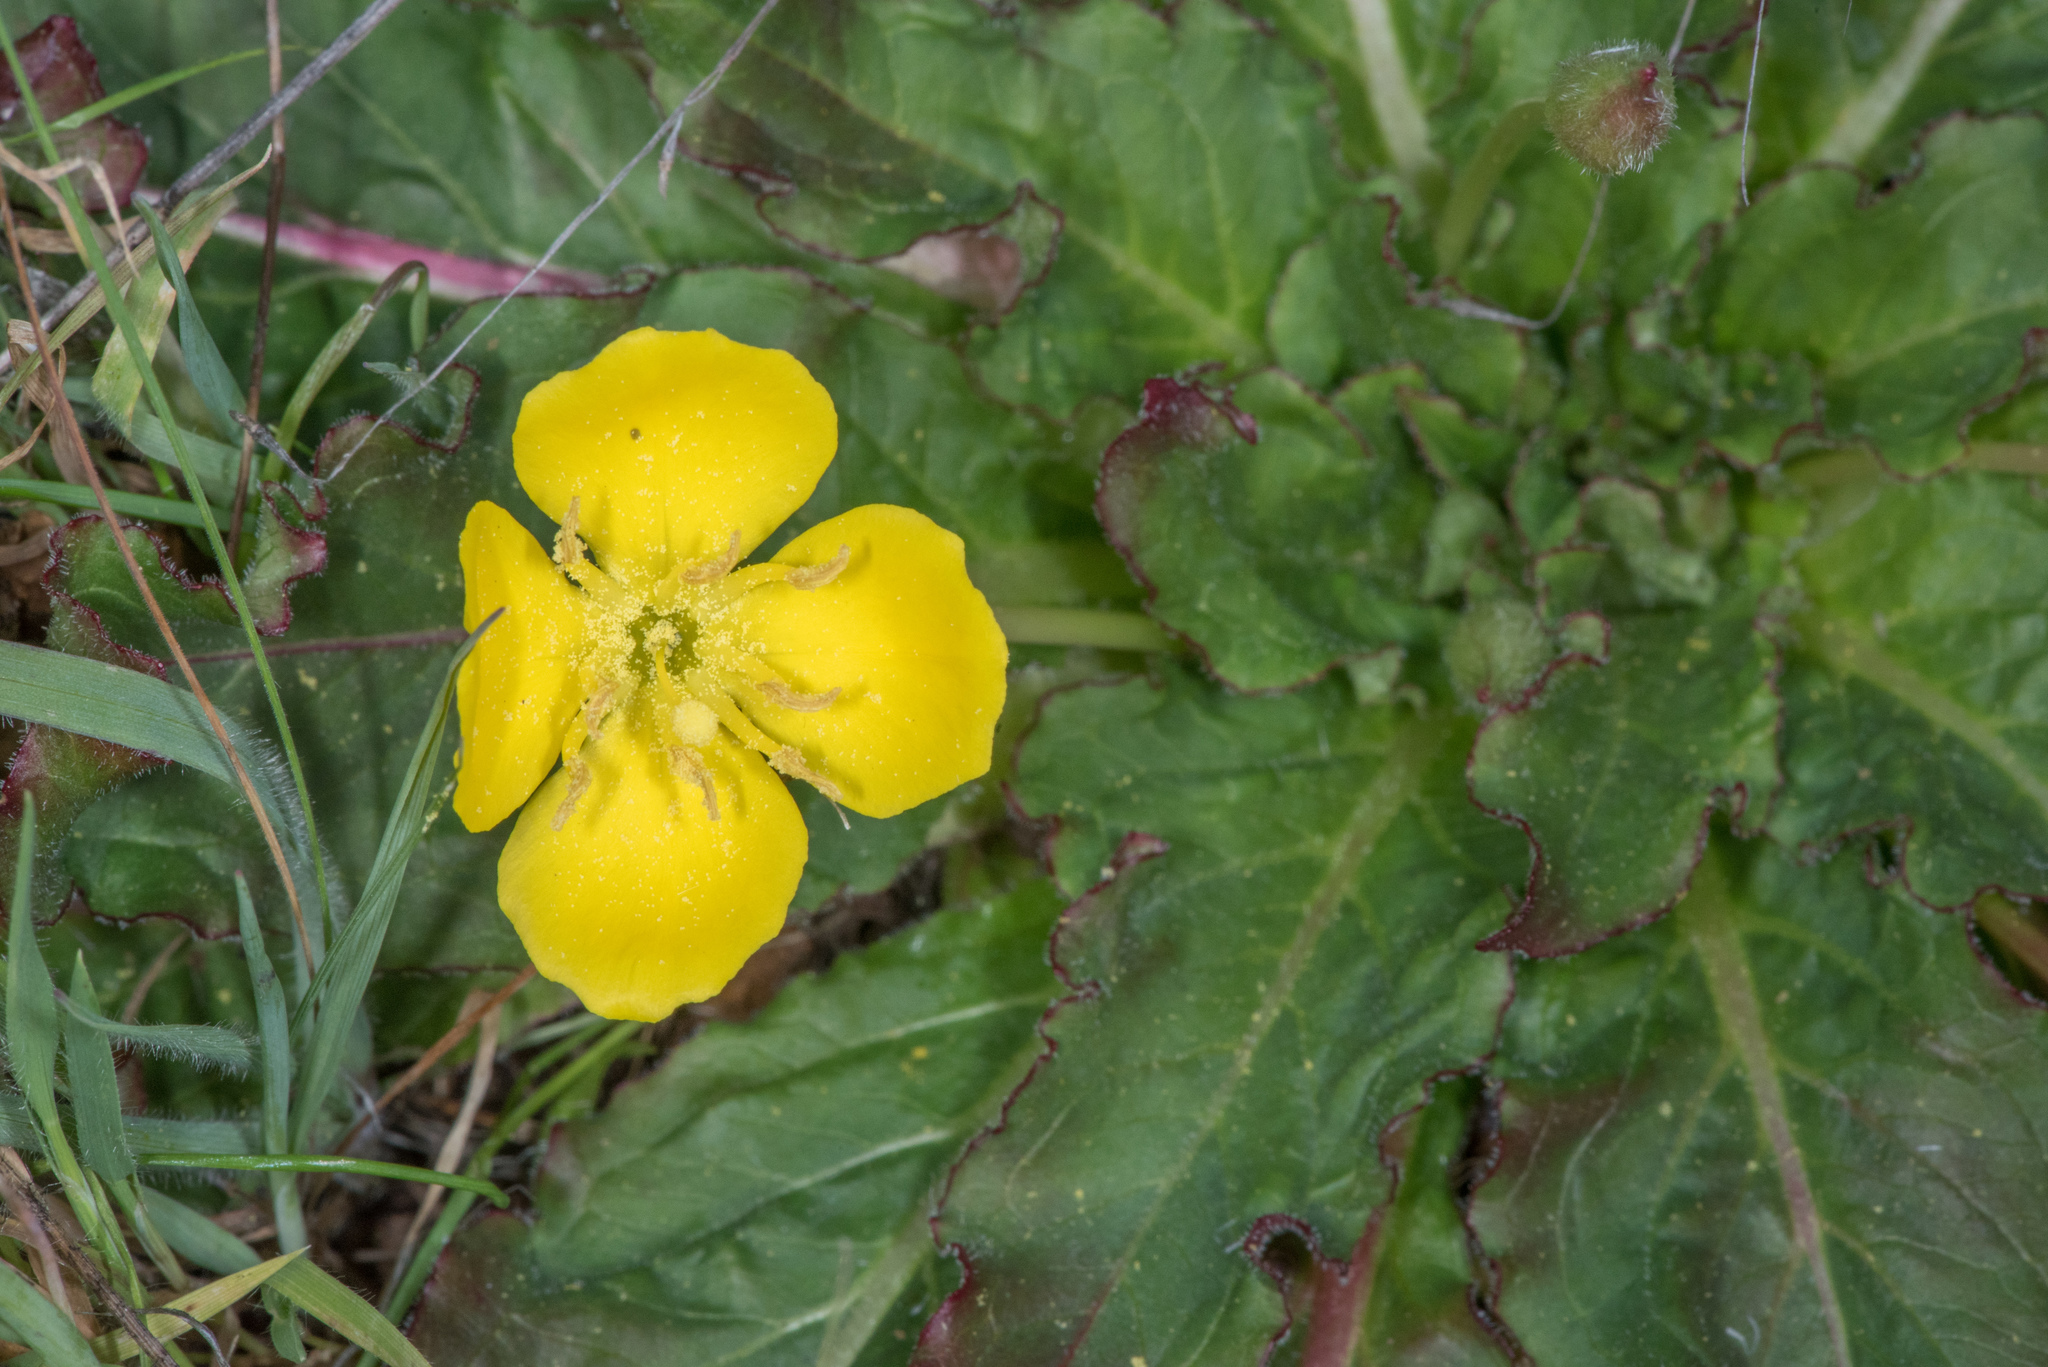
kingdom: Plantae
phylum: Tracheophyta
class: Magnoliopsida
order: Myrtales
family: Onagraceae
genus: Taraxia
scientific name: Taraxia ovata
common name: Goldeneggs
